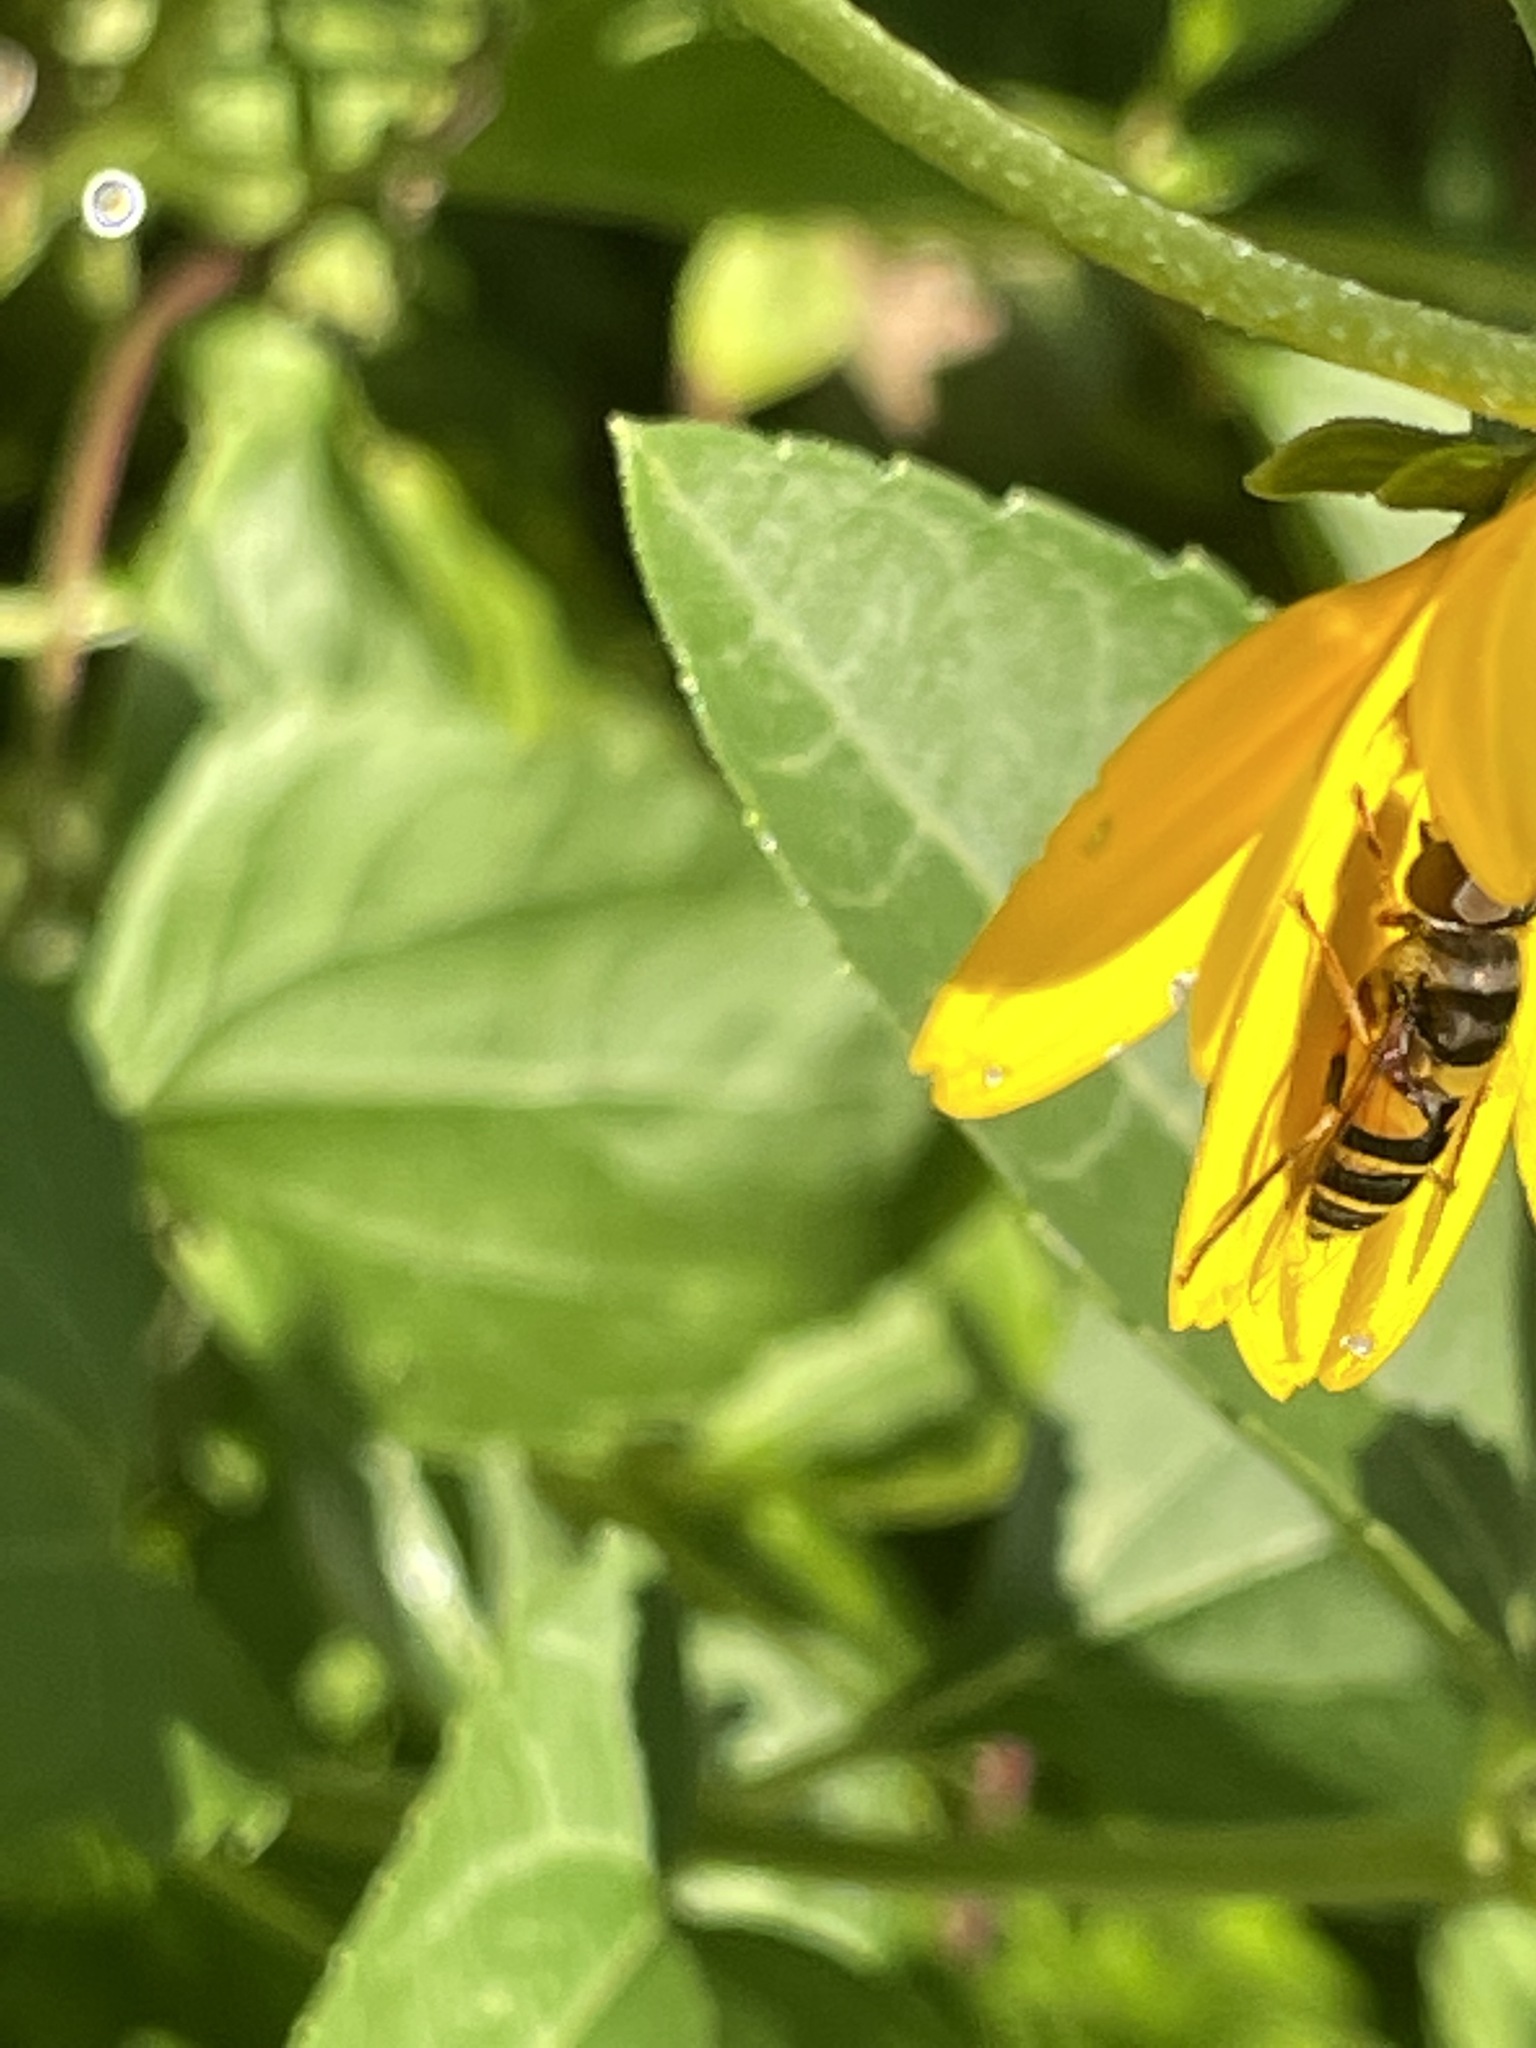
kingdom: Animalia
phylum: Arthropoda
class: Insecta
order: Diptera
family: Syrphidae
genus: Eristalis
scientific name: Eristalis transversa
